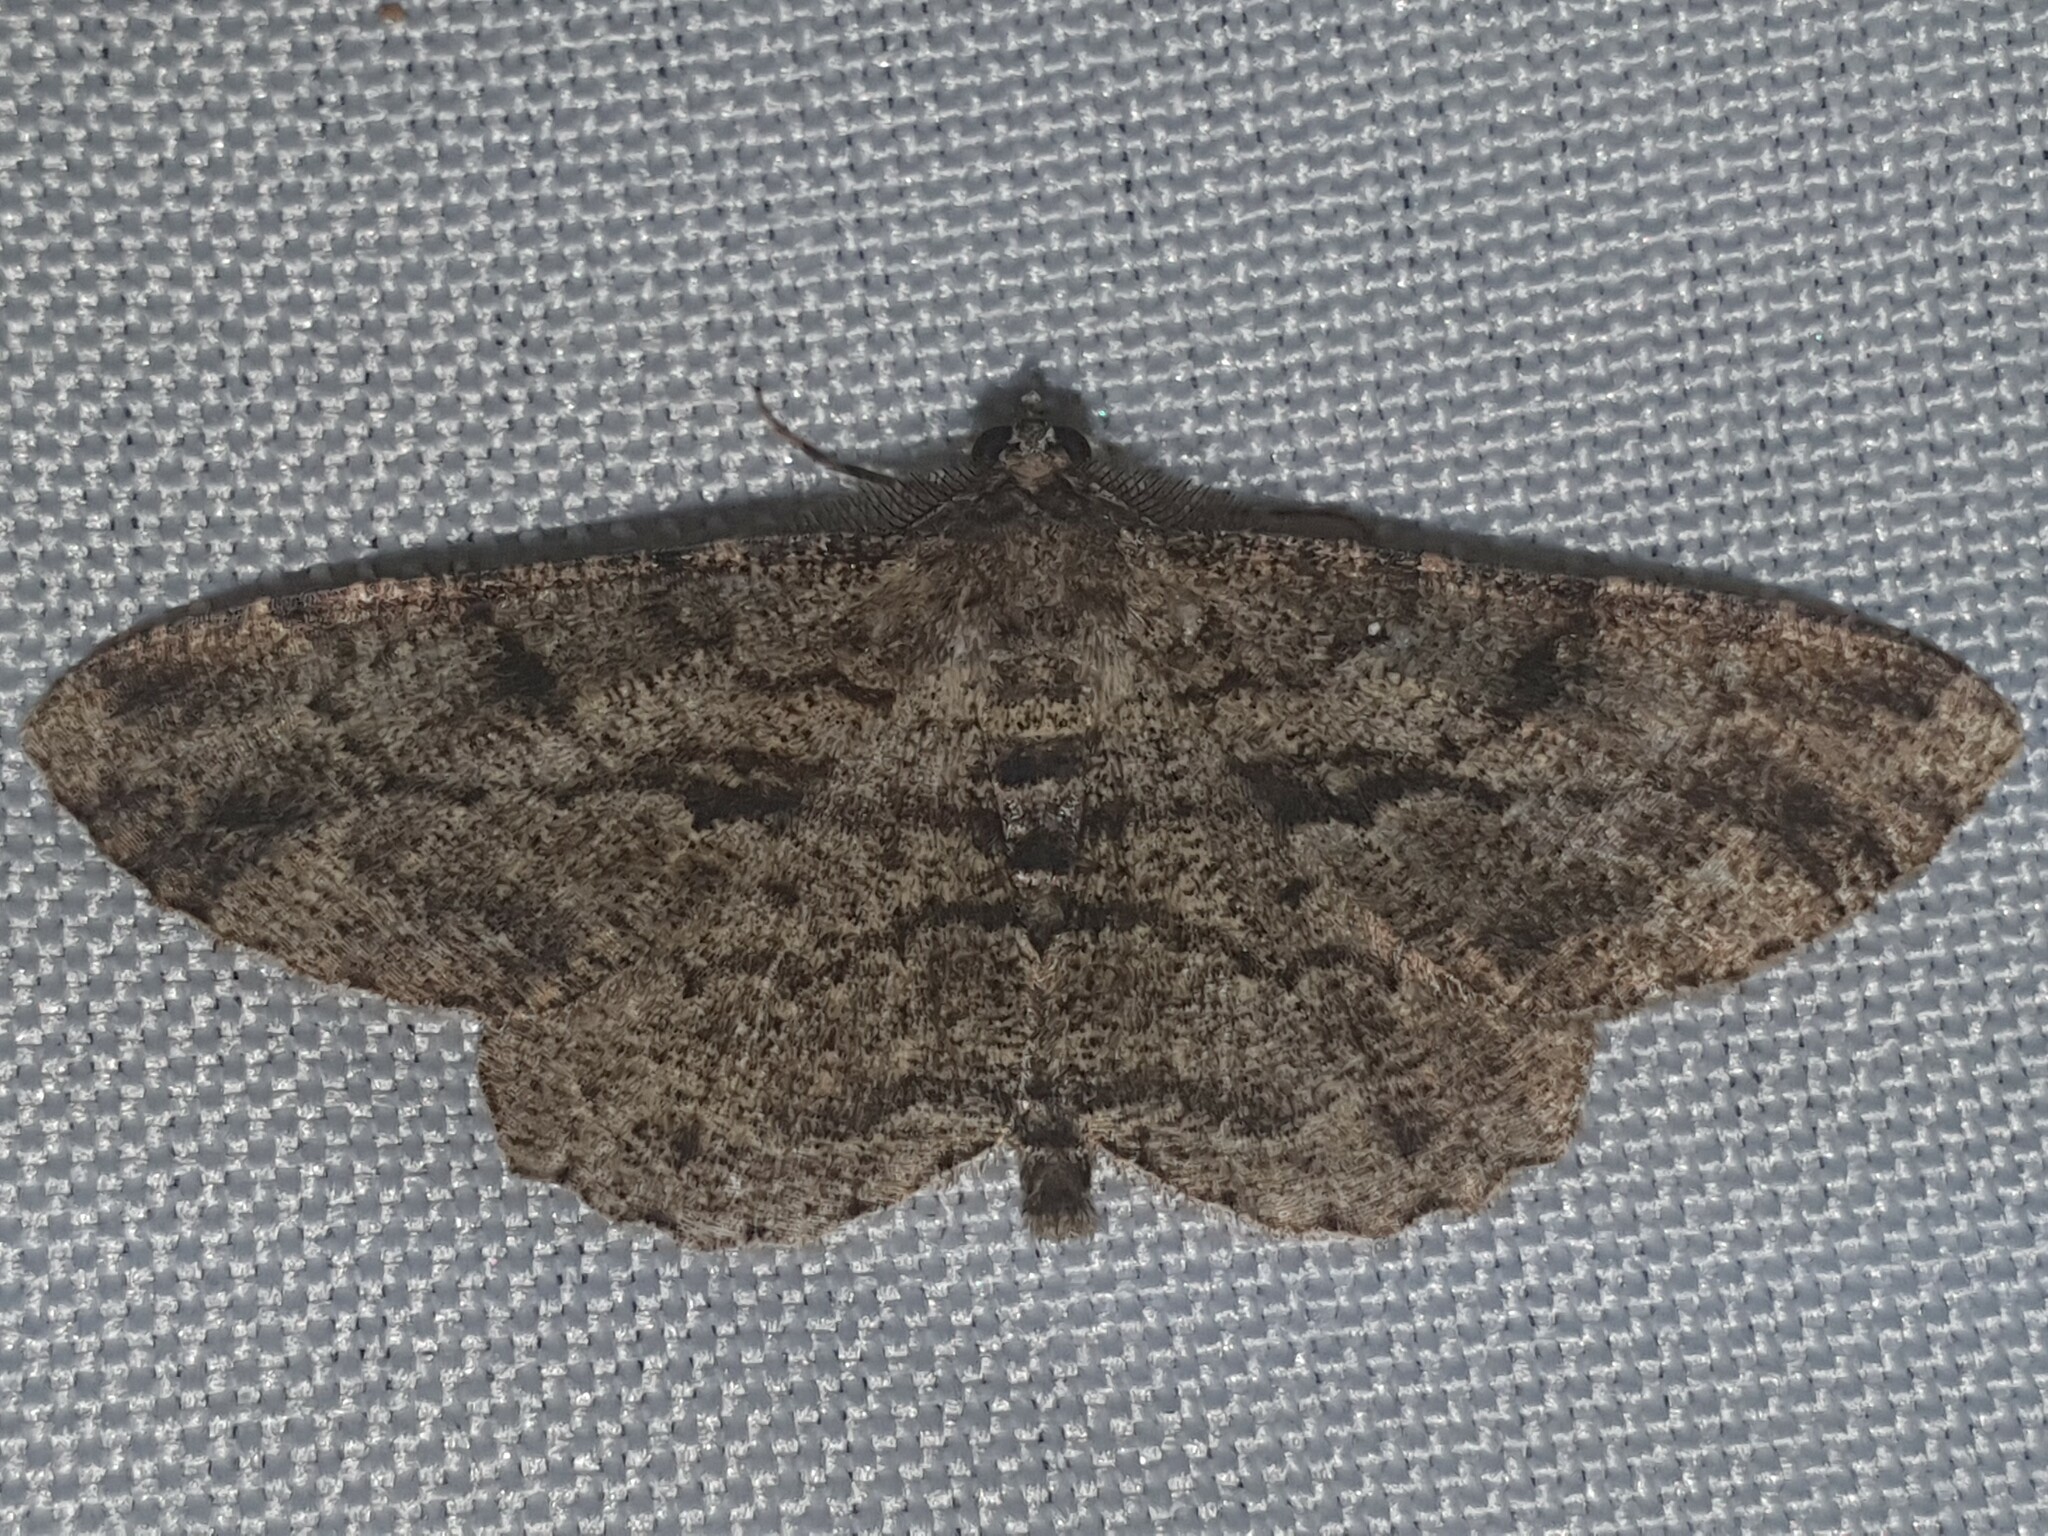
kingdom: Animalia
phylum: Arthropoda
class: Insecta
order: Lepidoptera
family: Geometridae
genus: Peribatodes
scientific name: Peribatodes rhomboidaria
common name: Willow beauty
